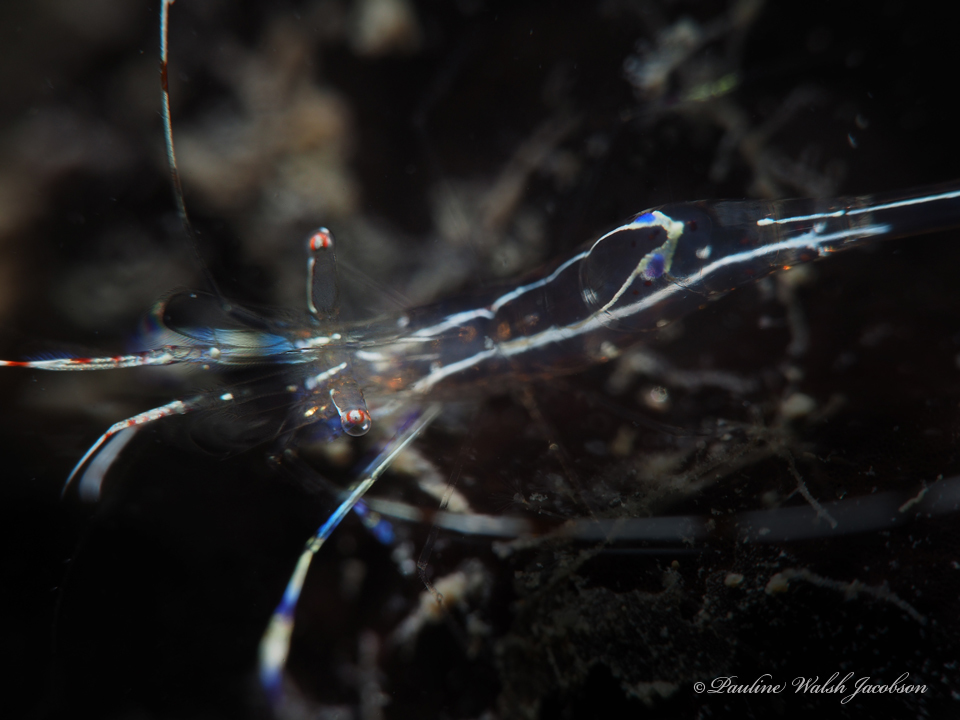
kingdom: Animalia
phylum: Arthropoda
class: Malacostraca
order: Decapoda
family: Palaemonidae
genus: Ancylomenes
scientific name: Ancylomenes pedersoni
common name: Pederson's cleaning shrimp
